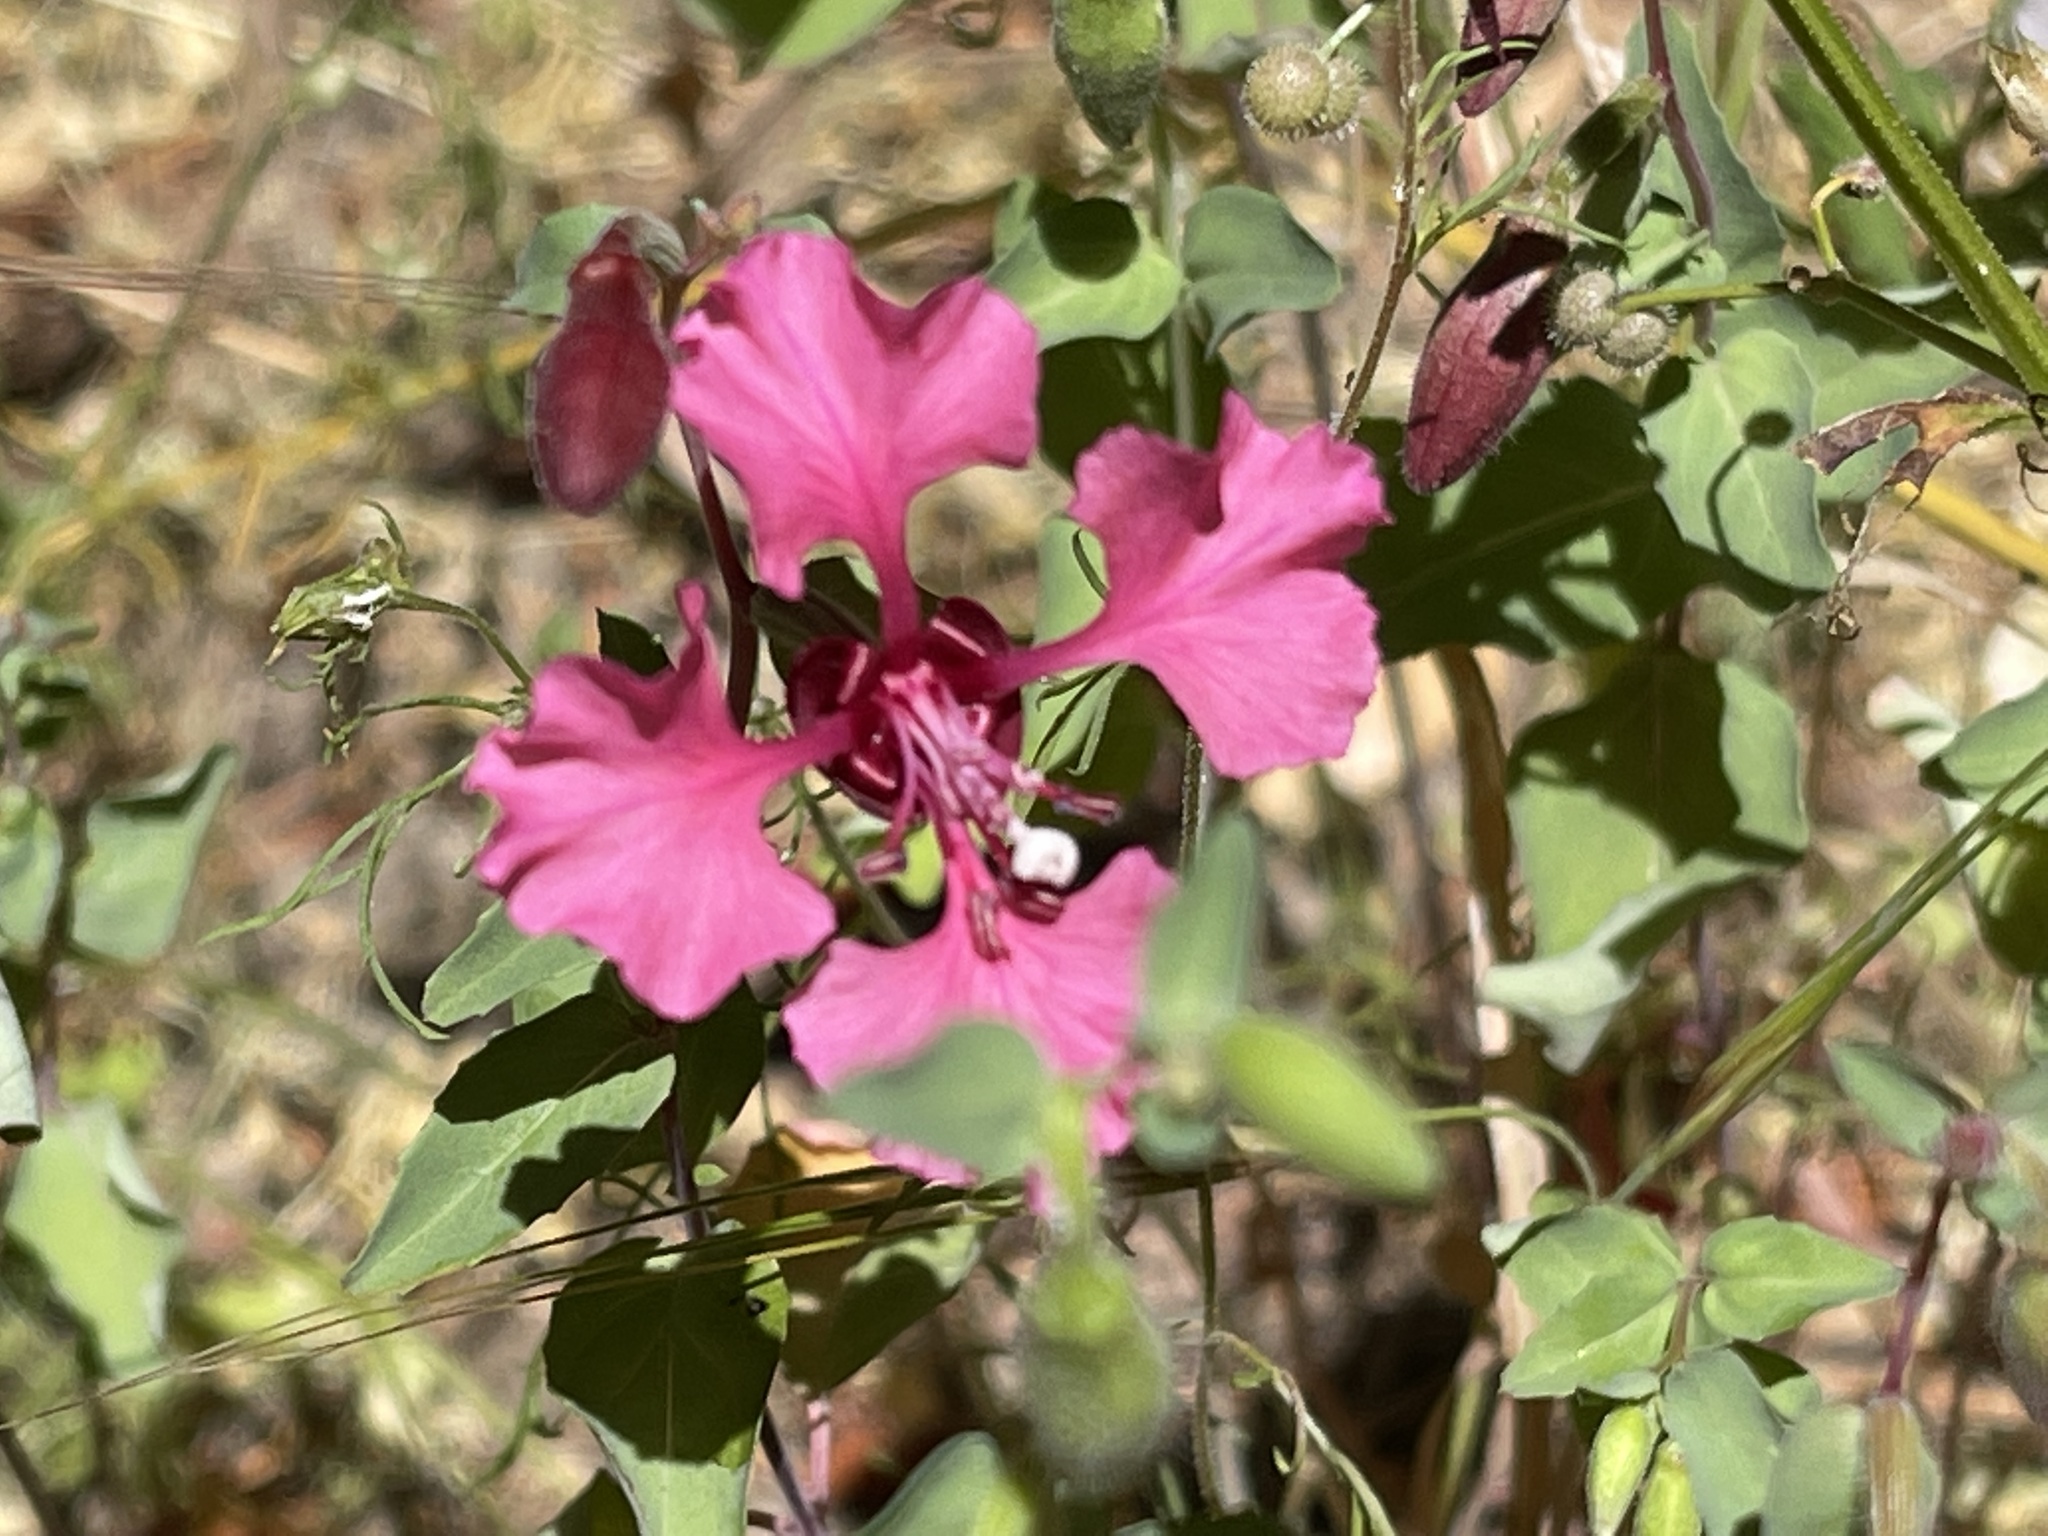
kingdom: Plantae
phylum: Tracheophyta
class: Magnoliopsida
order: Myrtales
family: Onagraceae
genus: Clarkia
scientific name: Clarkia unguiculata
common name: Clarkia
